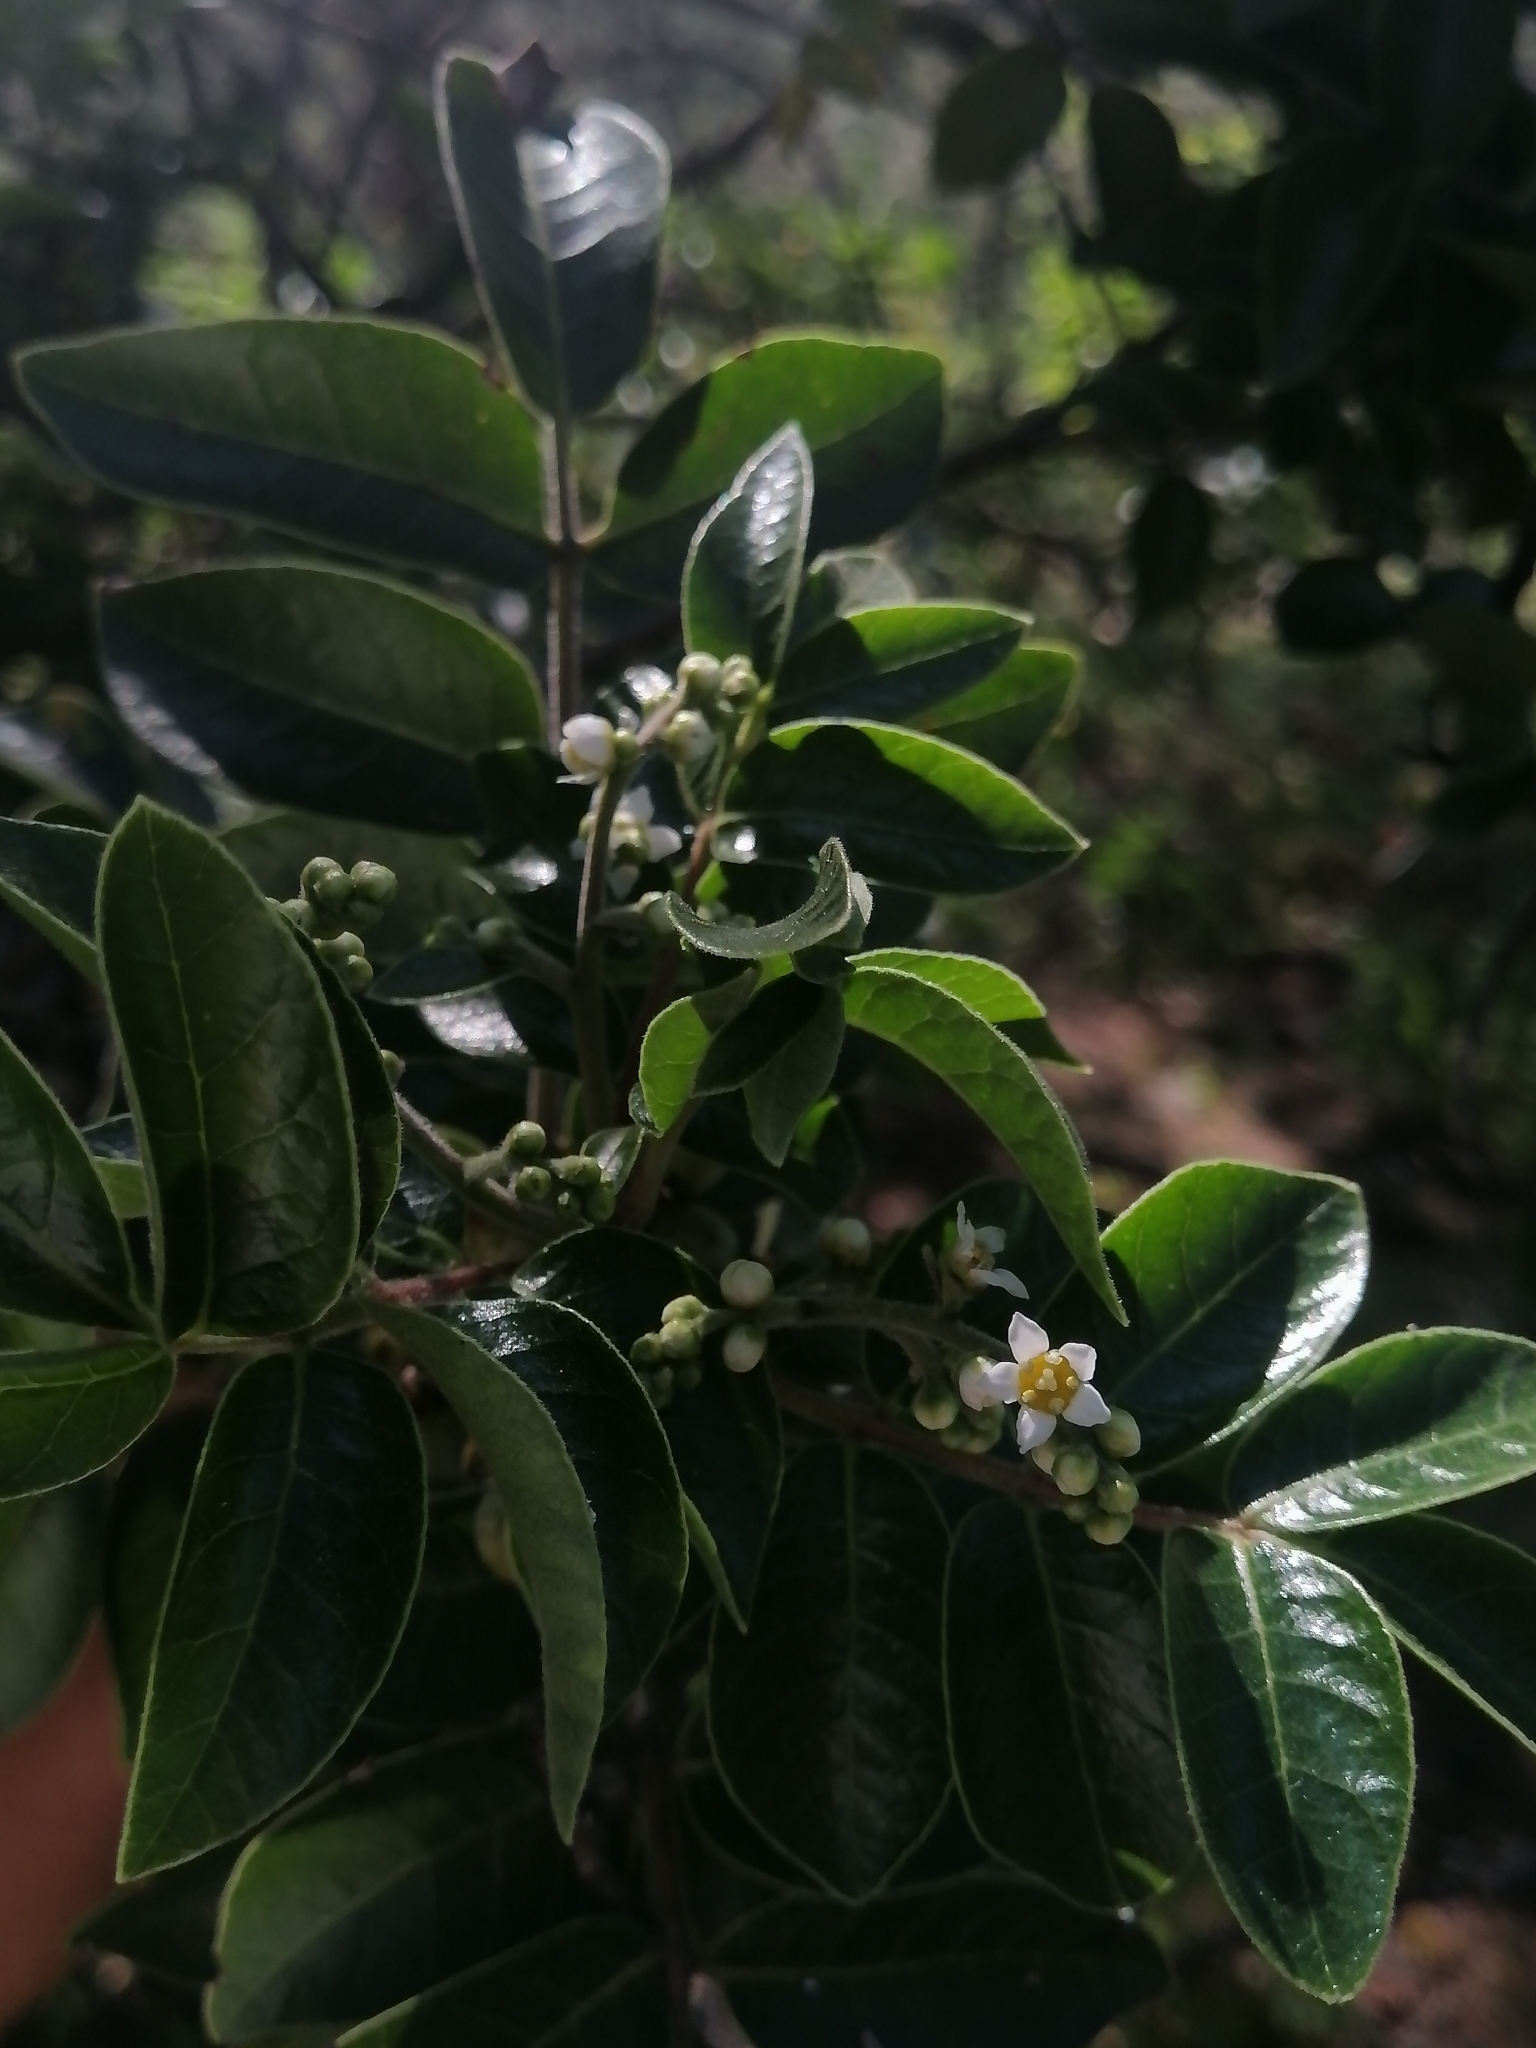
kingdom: Plantae
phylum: Tracheophyta
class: Magnoliopsida
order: Sapindales
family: Anacardiaceae
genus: Rhus
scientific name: Rhus virens
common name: Evergreen sumac
